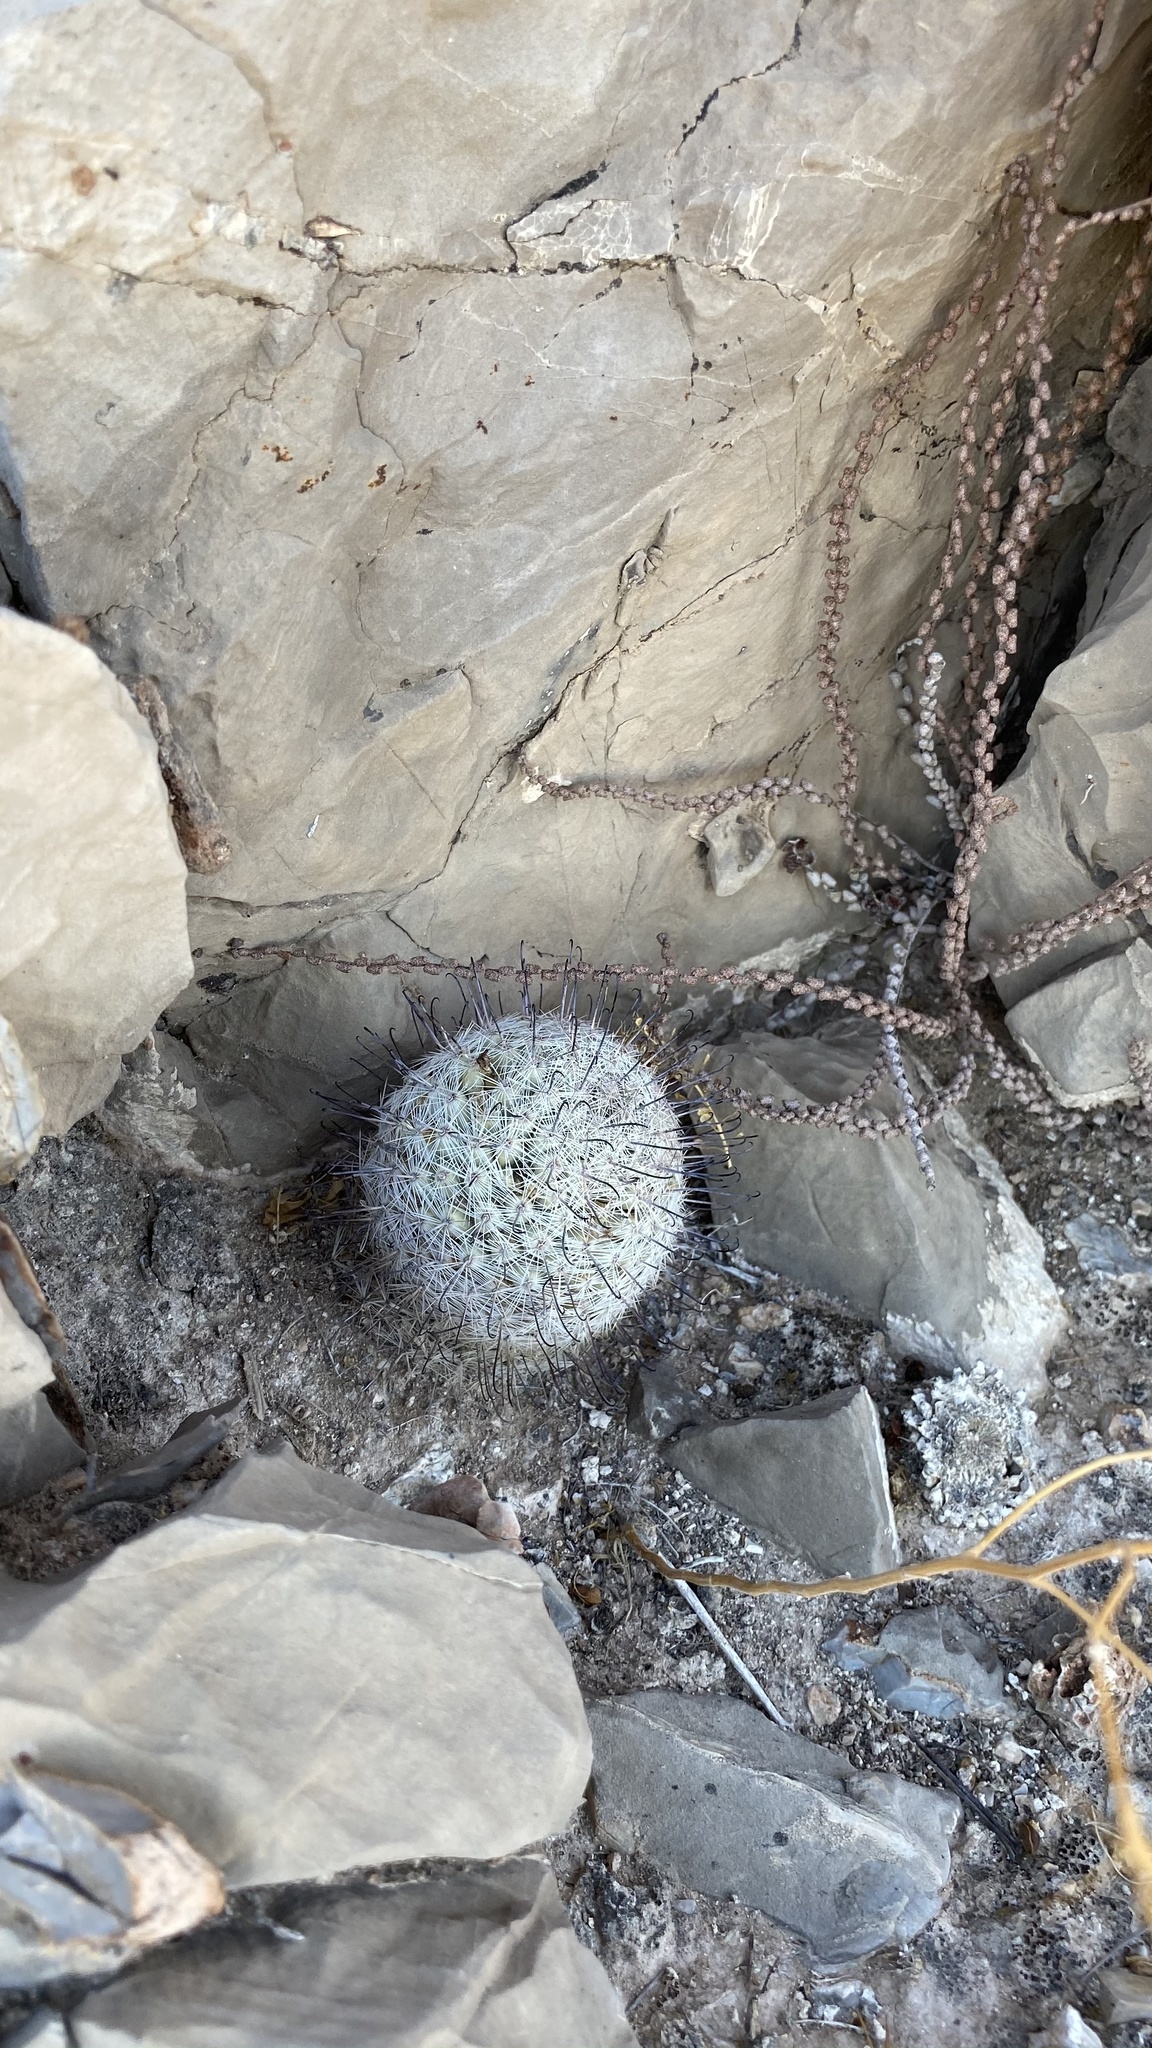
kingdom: Plantae
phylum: Tracheophyta
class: Magnoliopsida
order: Caryophyllales
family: Cactaceae
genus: Cochemiea
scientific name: Cochemiea grahamii
